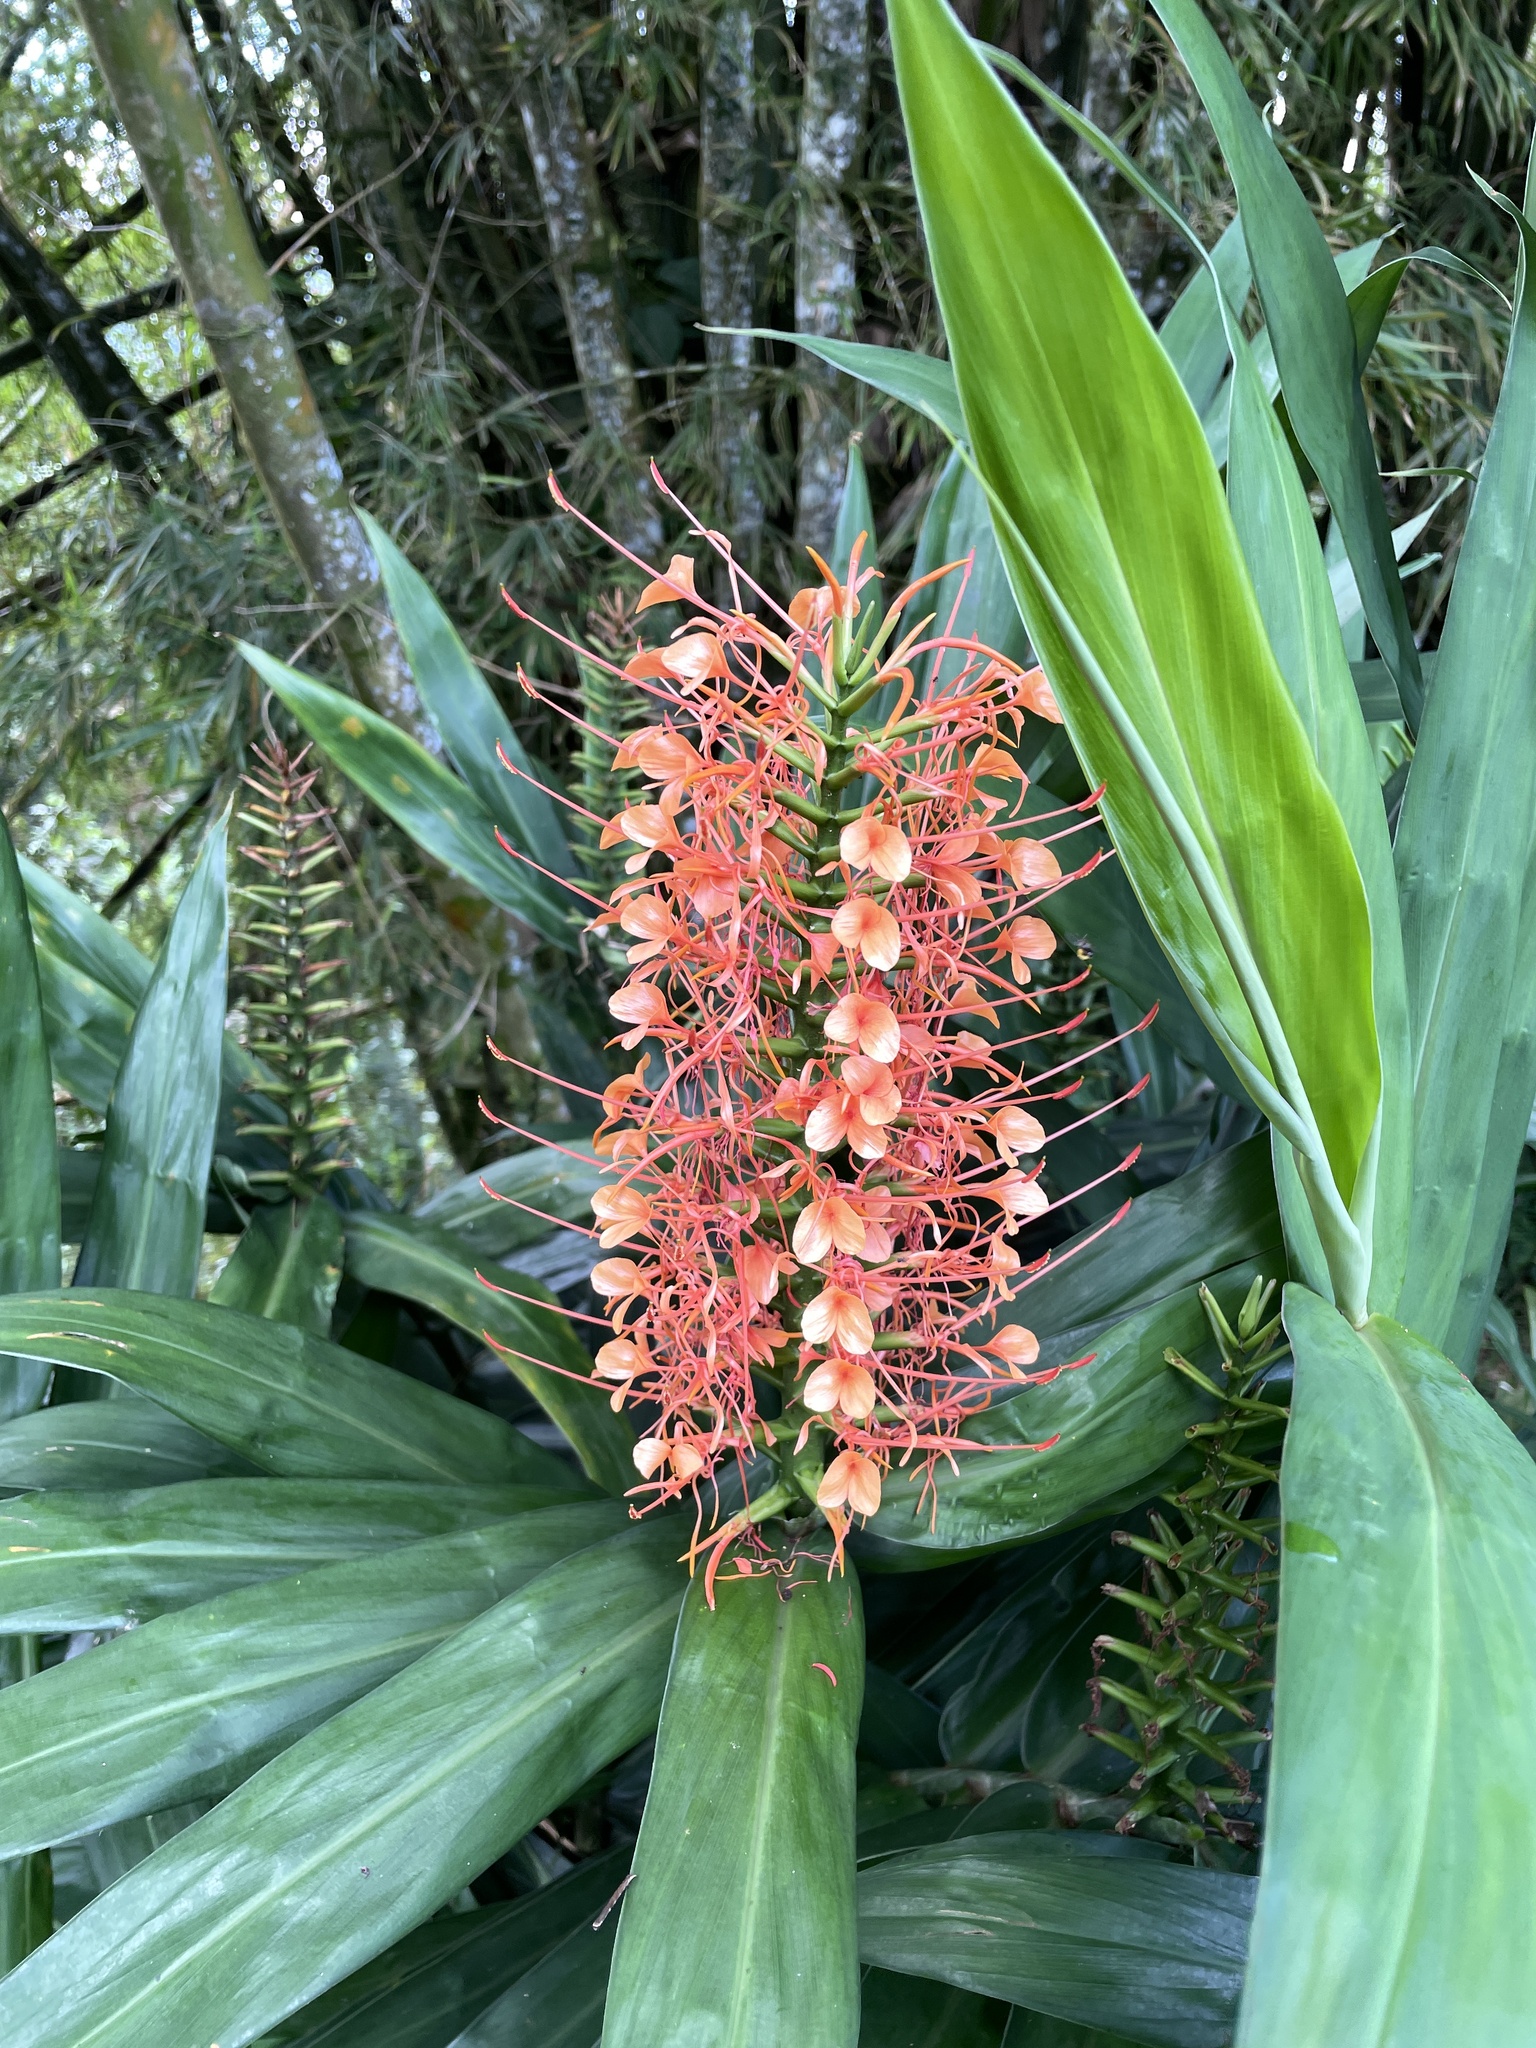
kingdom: Plantae
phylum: Tracheophyta
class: Liliopsida
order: Zingiberales
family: Zingiberaceae
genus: Hedychium
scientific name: Hedychium coccineum
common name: Red ginger-lily
